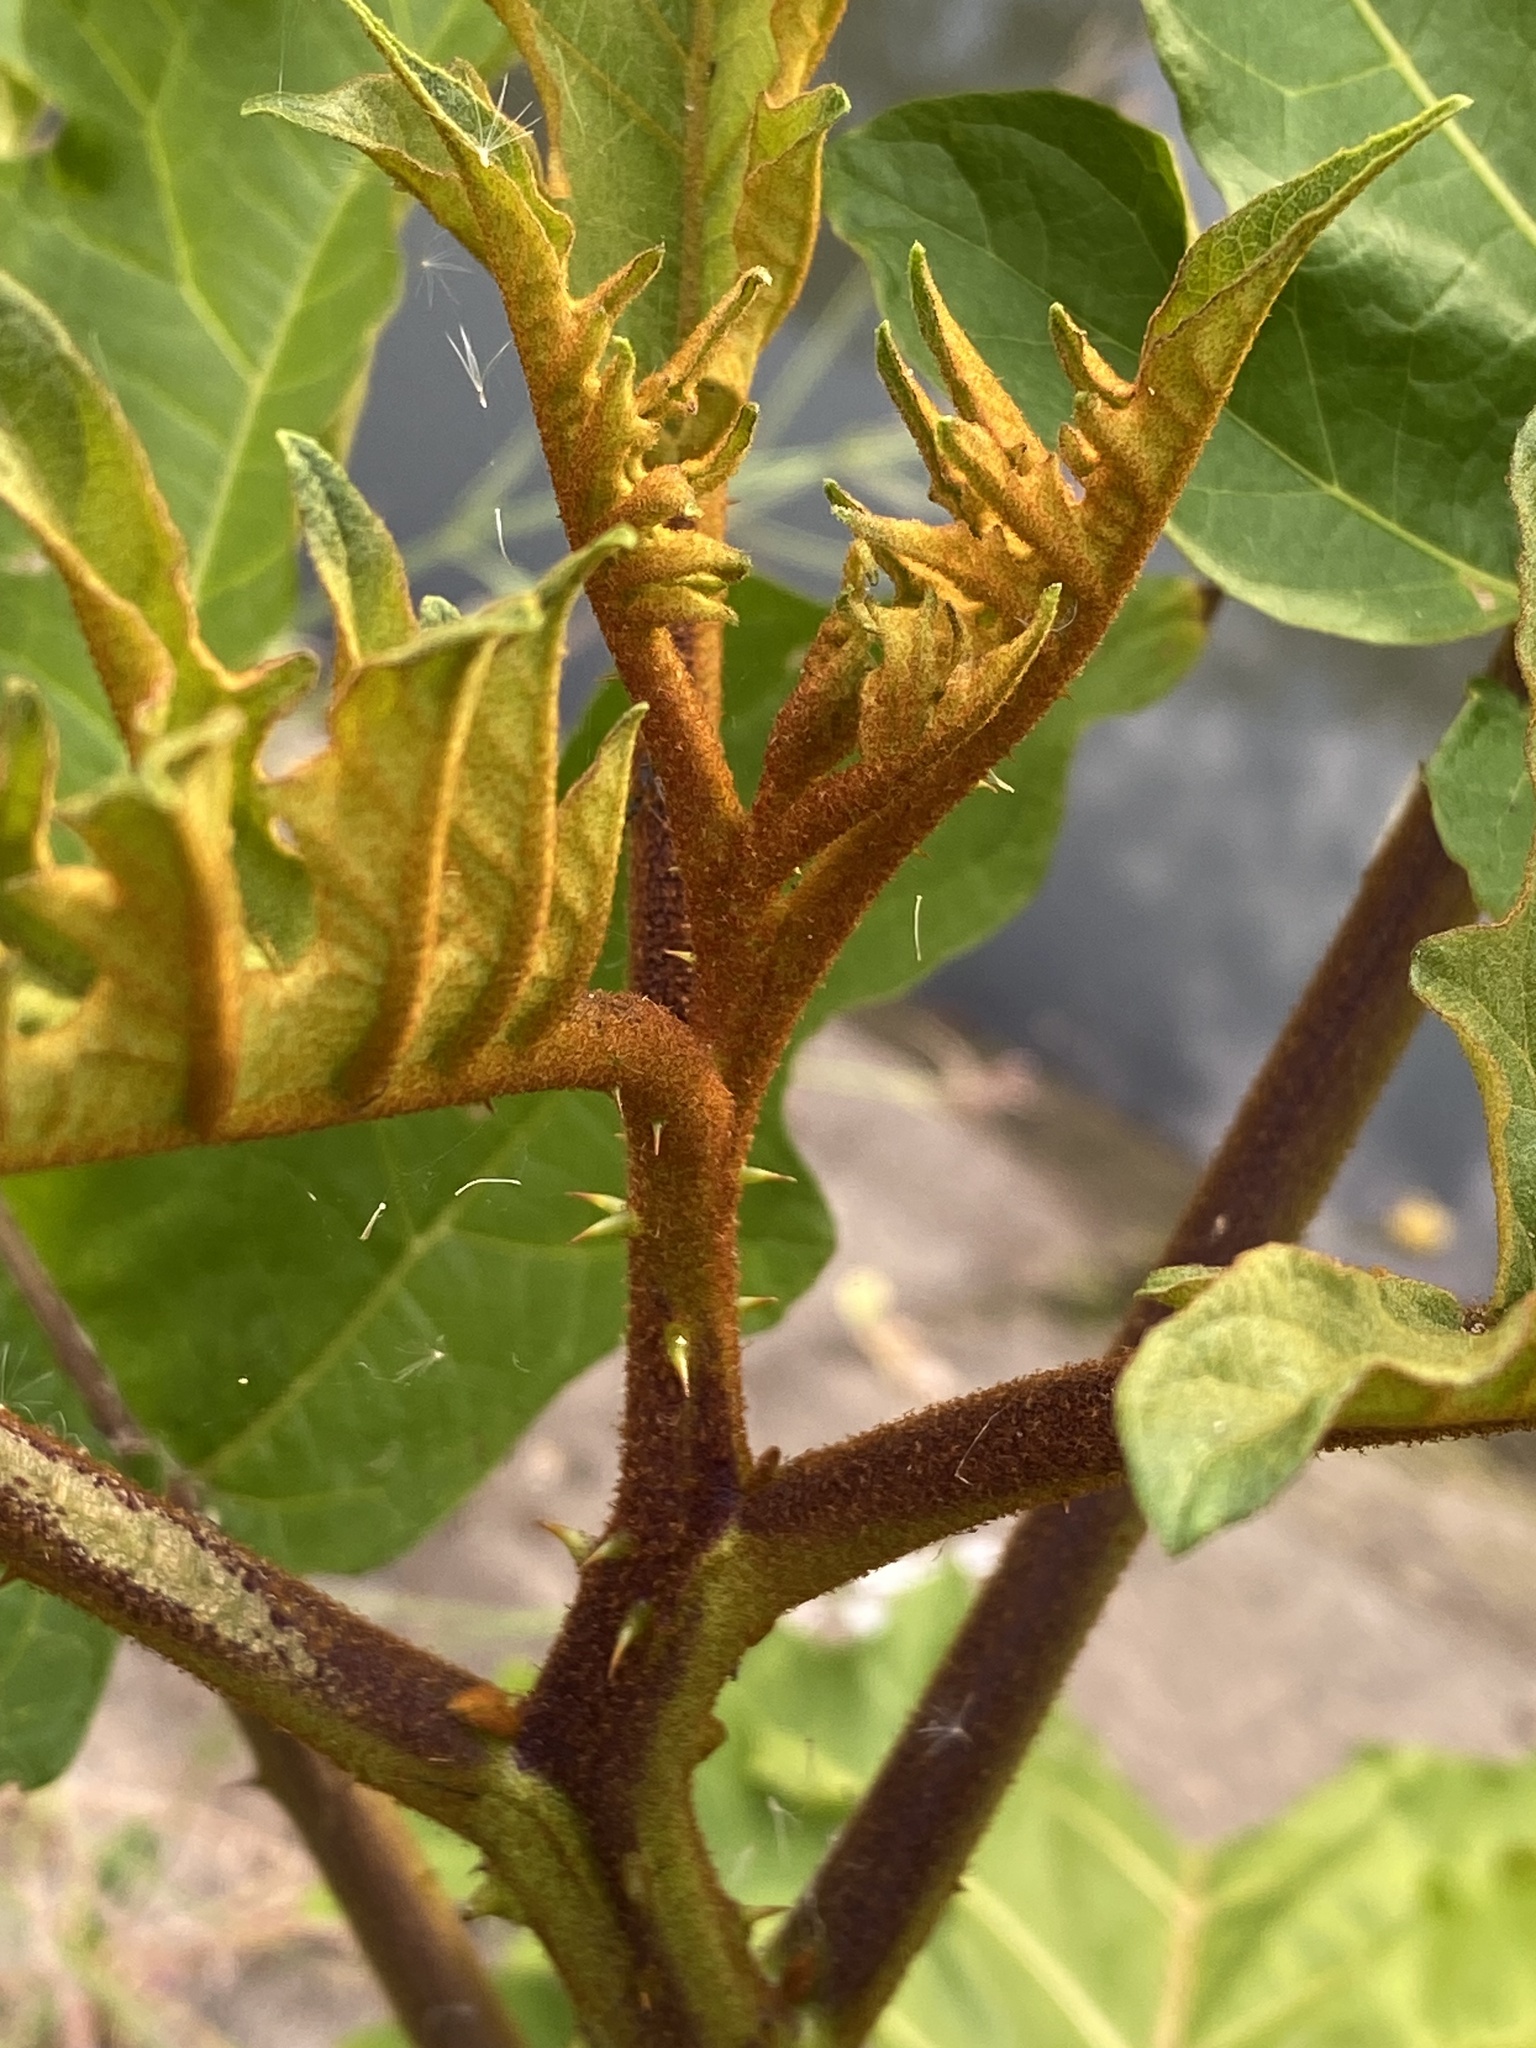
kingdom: Plantae
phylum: Tracheophyta
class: Magnoliopsida
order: Solanales
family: Solanaceae
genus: Solanum
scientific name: Solanum chrysotrichum
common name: Nightshade
